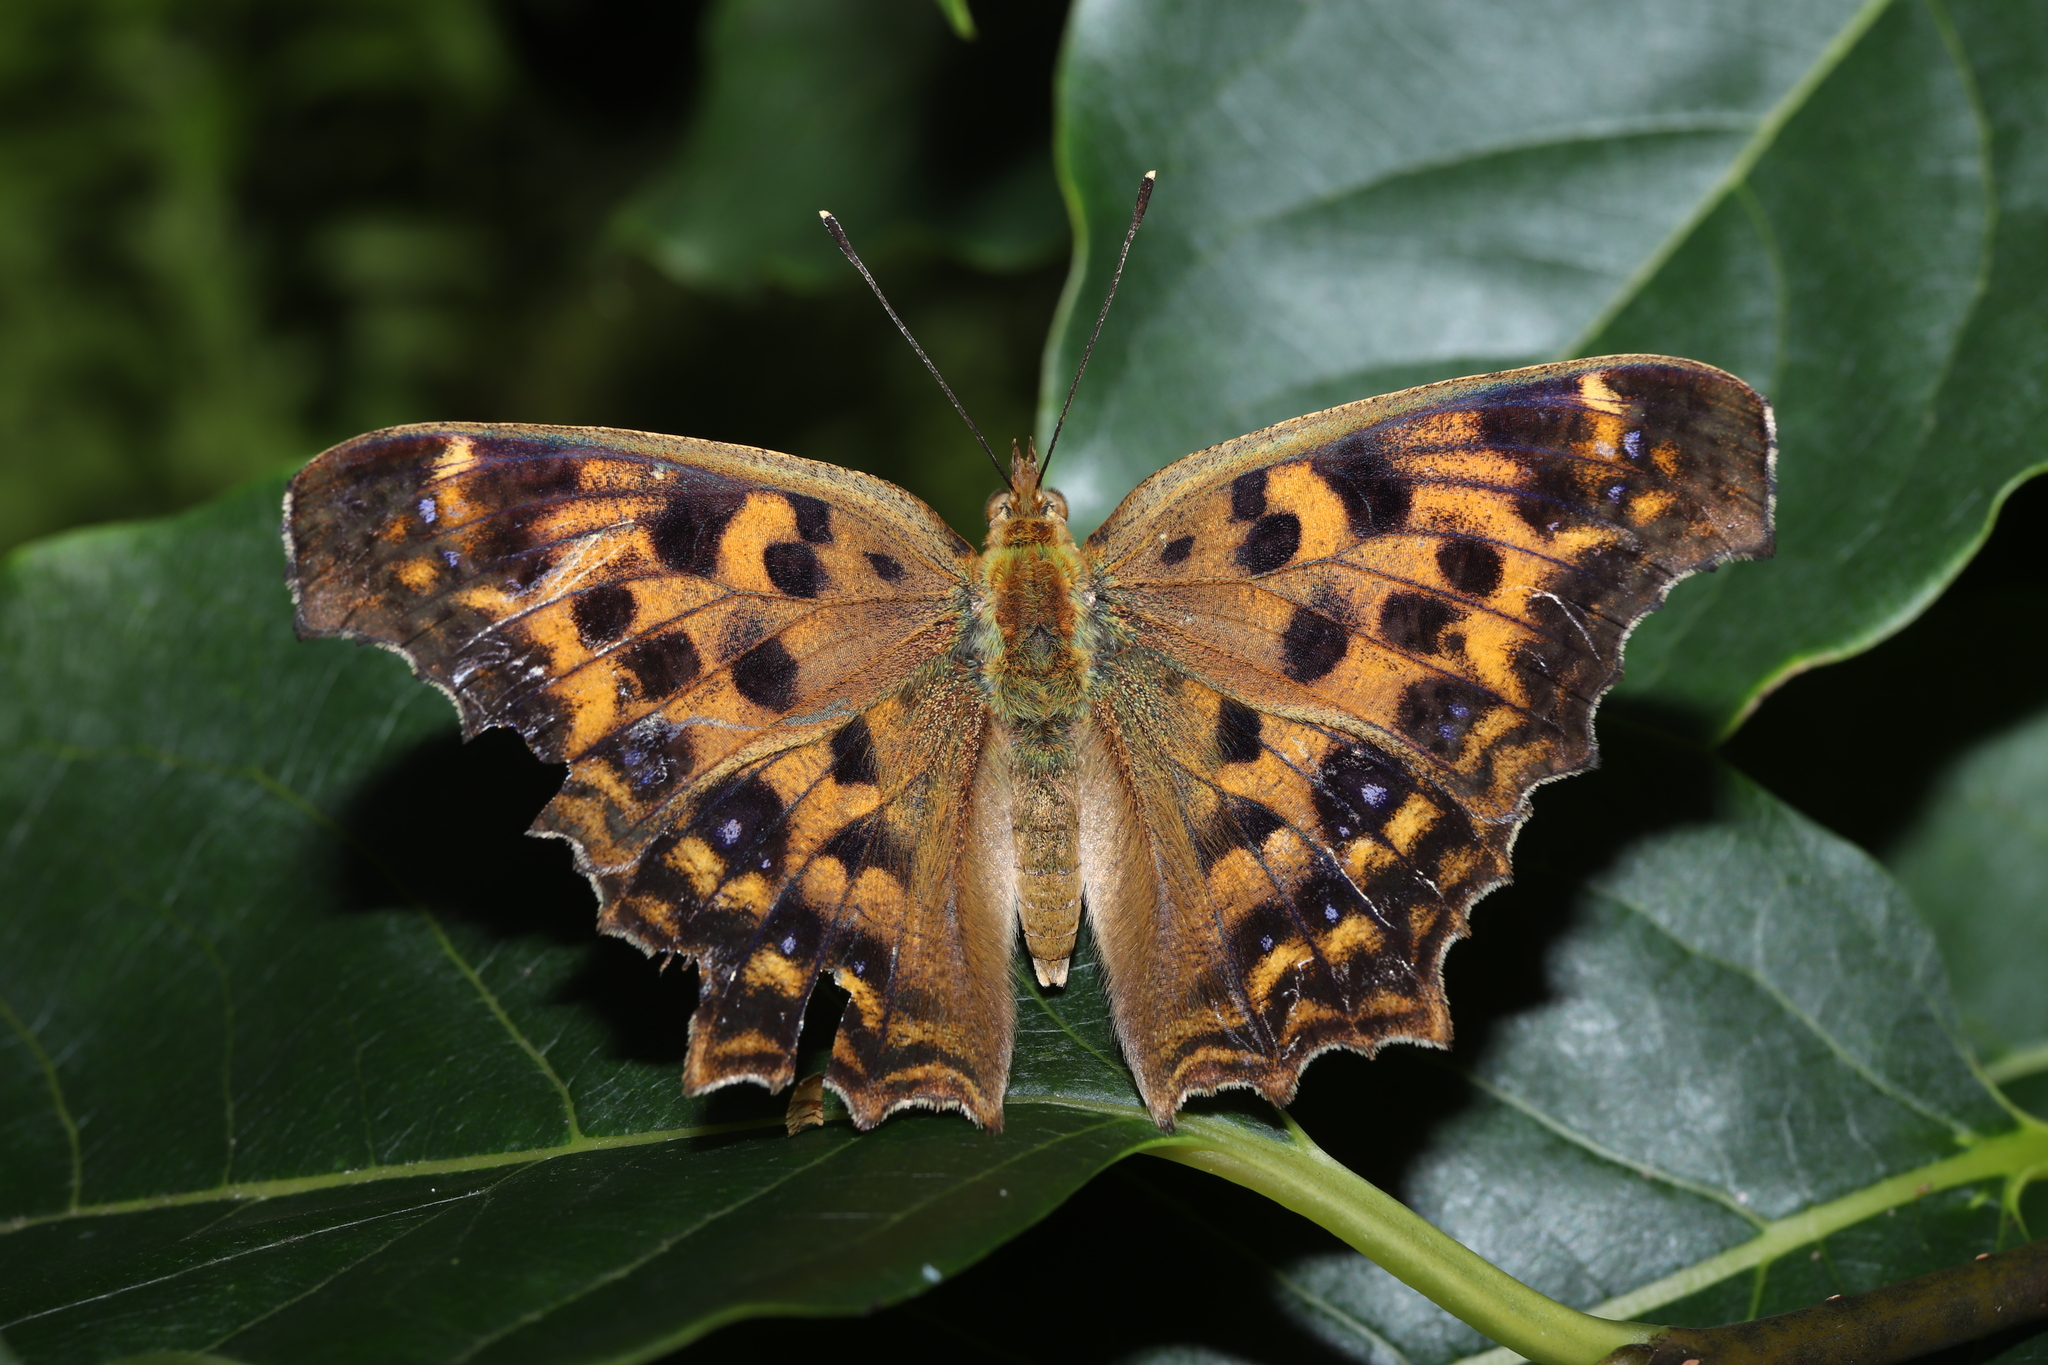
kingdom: Animalia
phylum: Arthropoda
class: Insecta
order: Lepidoptera
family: Nymphalidae
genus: Polygonia
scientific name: Polygonia c-aureum
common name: Asian comma
